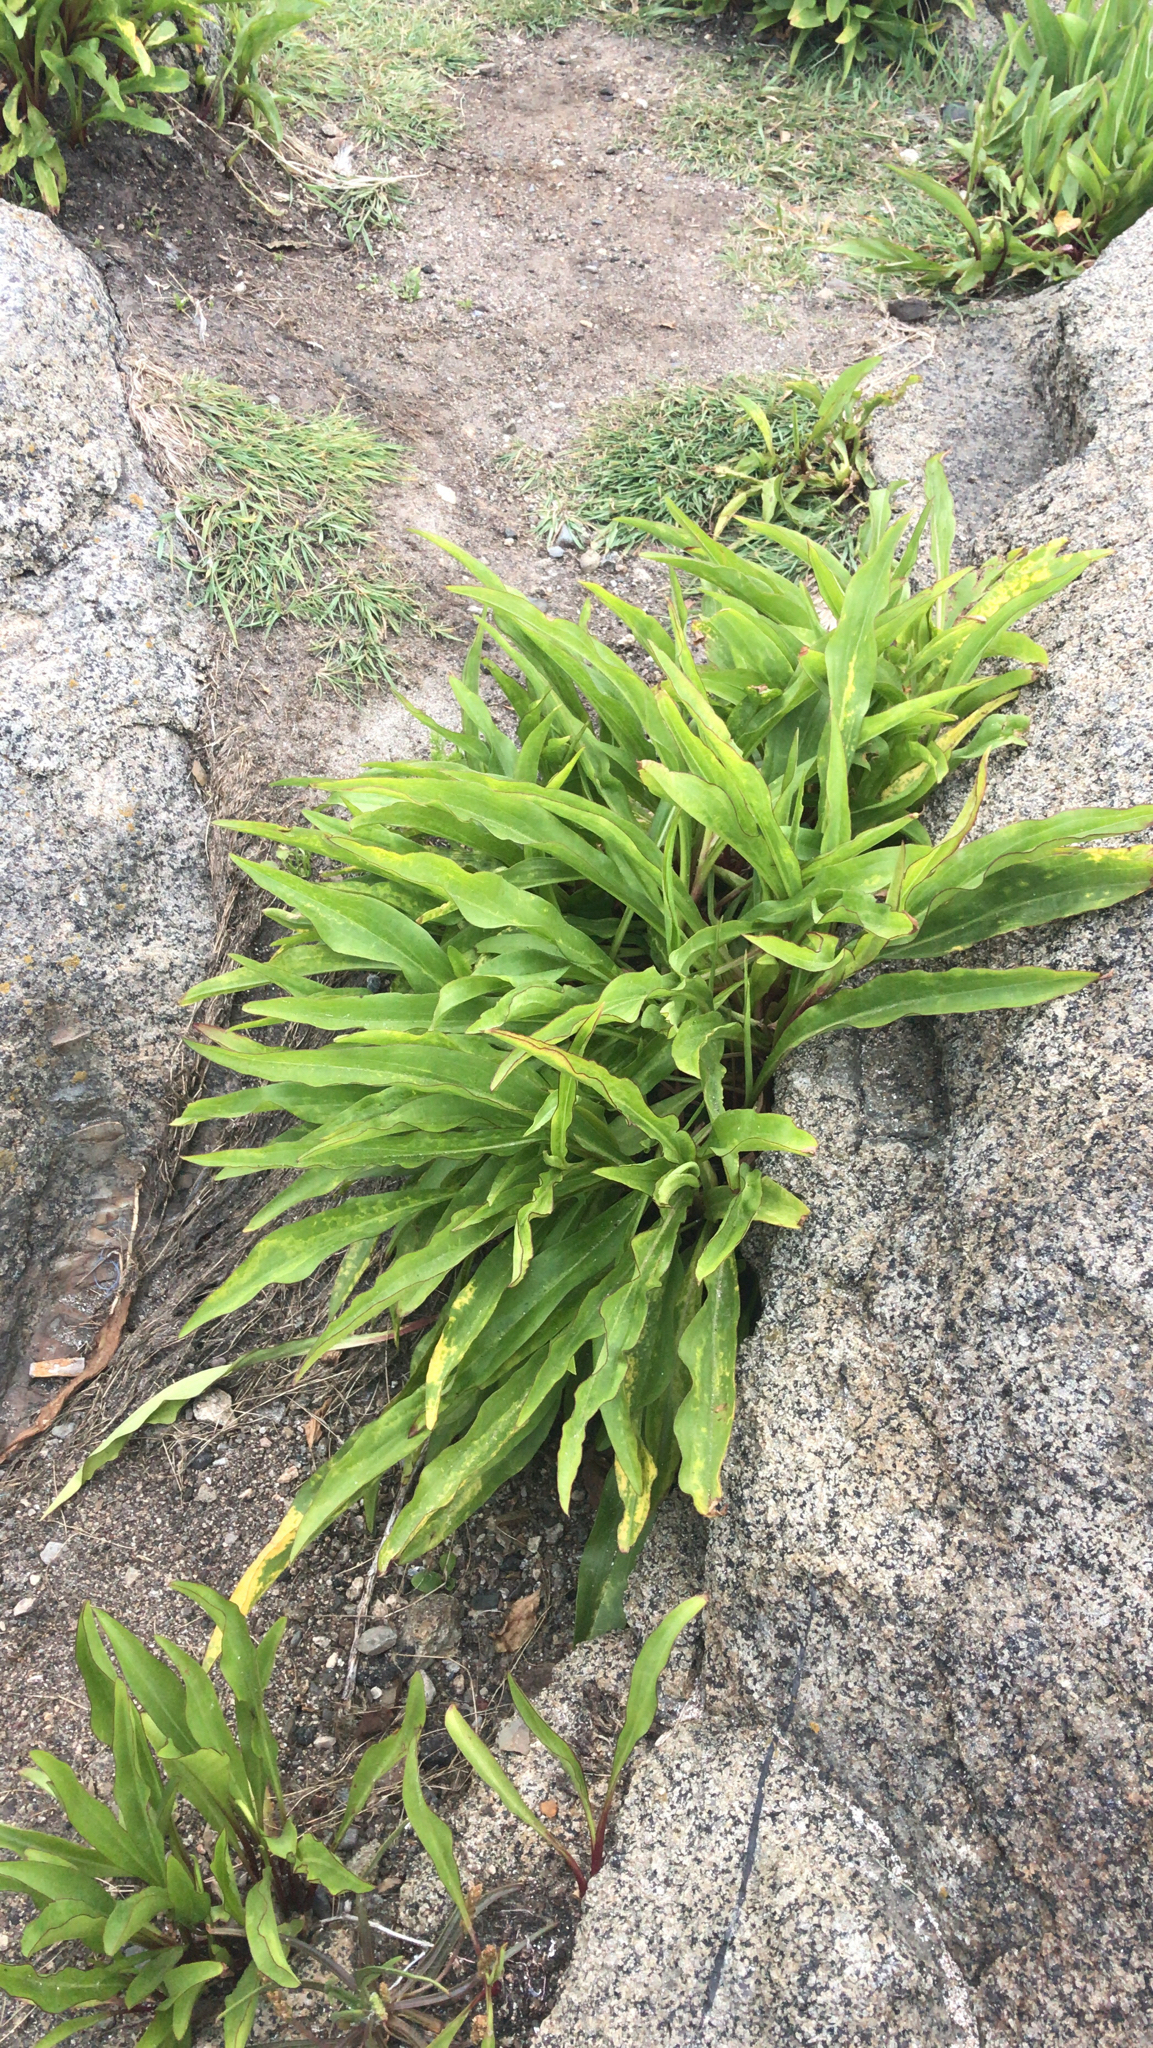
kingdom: Plantae
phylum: Tracheophyta
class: Magnoliopsida
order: Asterales
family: Asteraceae
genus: Solidago
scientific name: Solidago sempervirens
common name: Salt-marsh goldenrod
